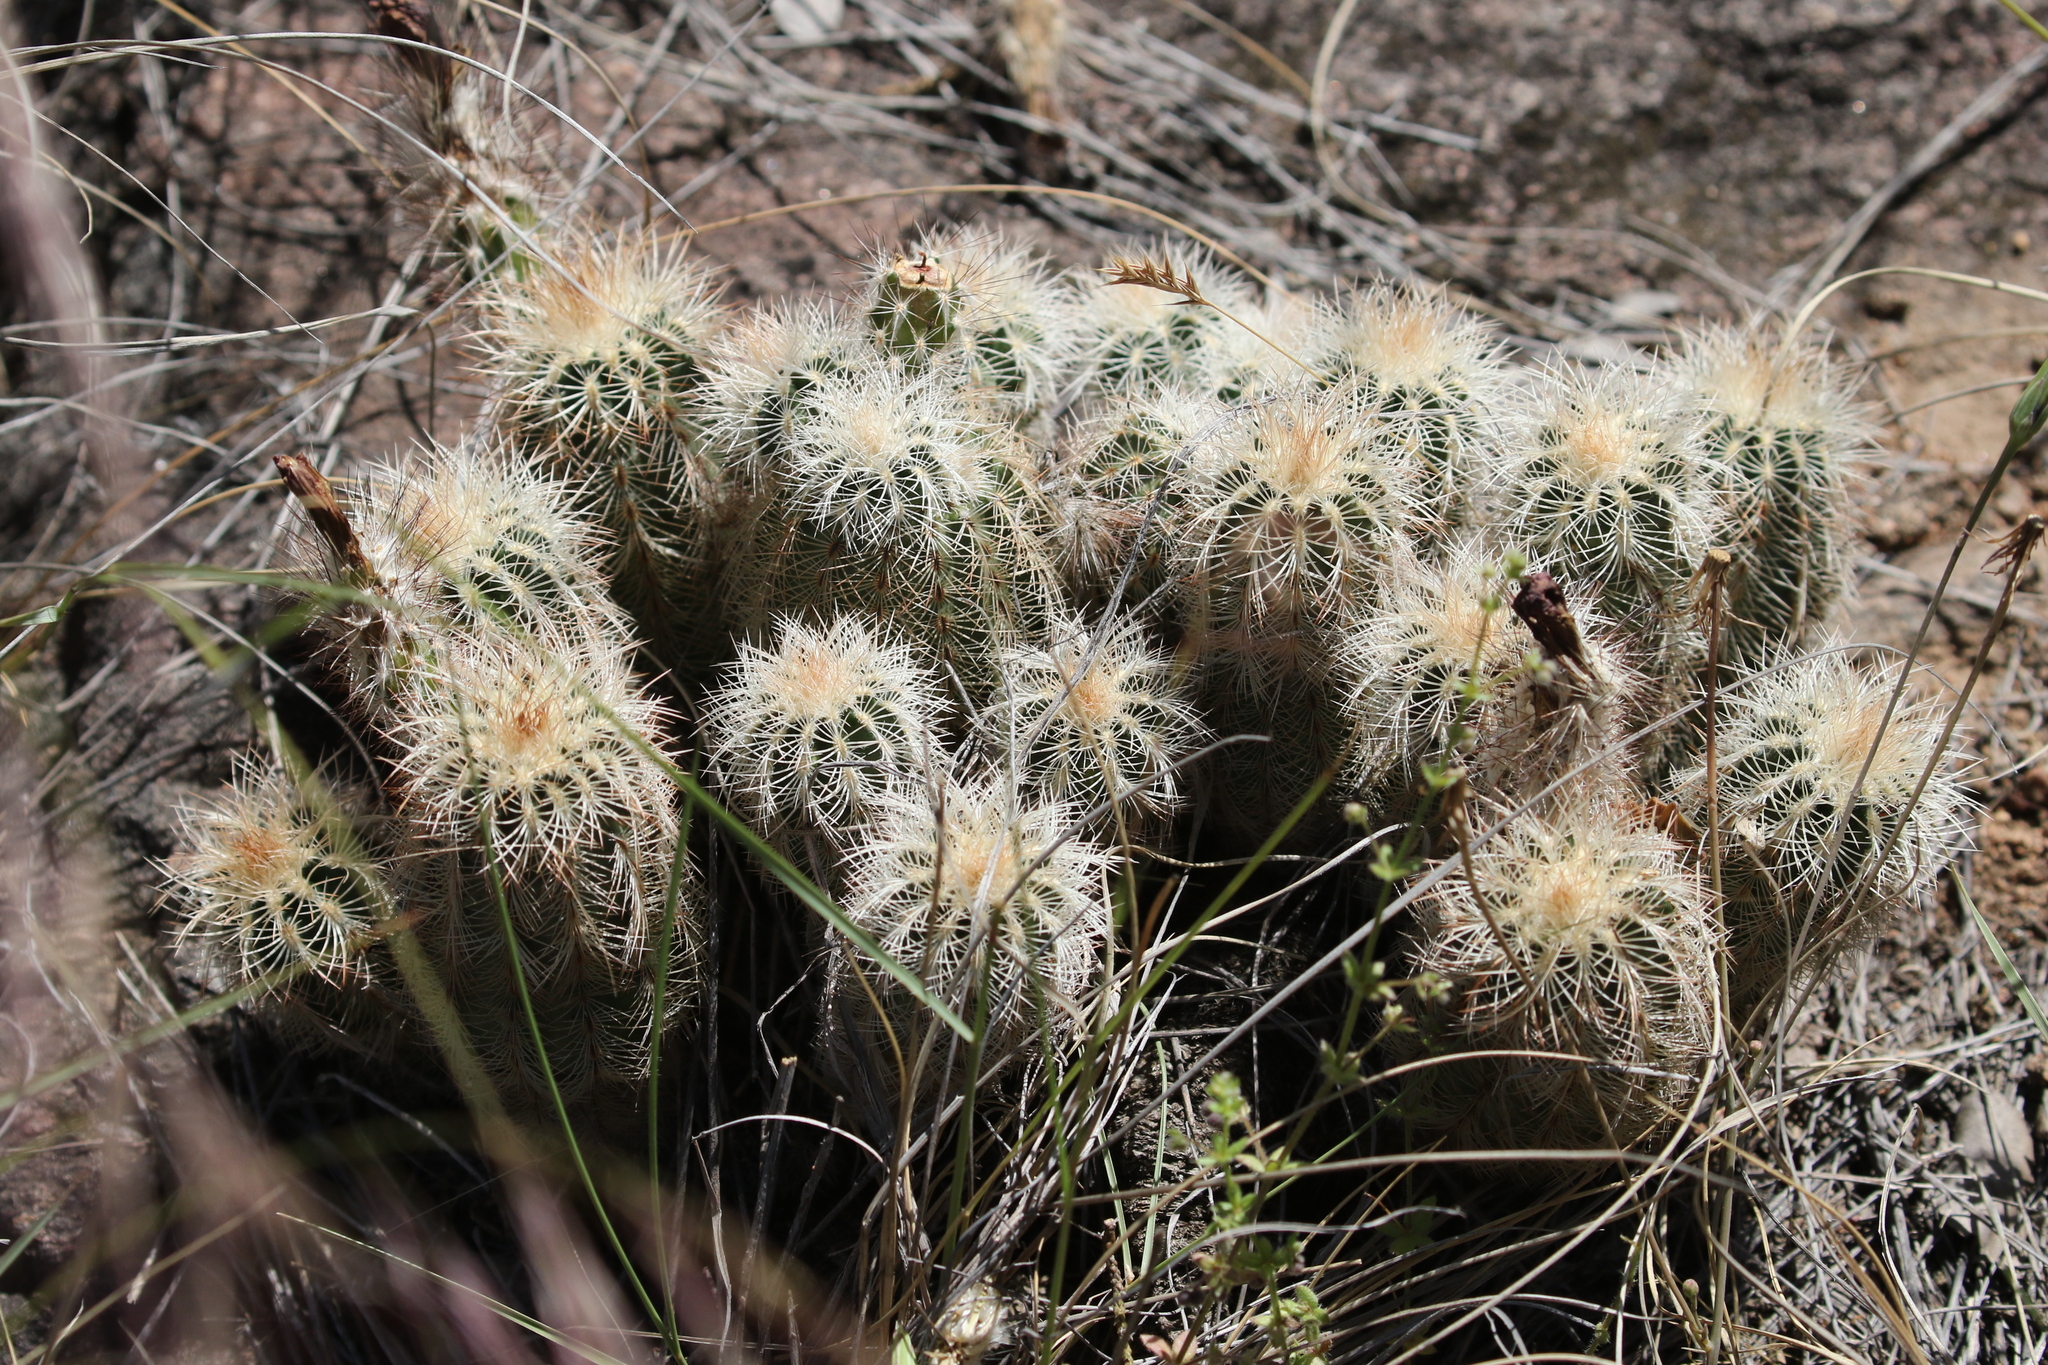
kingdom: Plantae
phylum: Tracheophyta
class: Magnoliopsida
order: Caryophyllales
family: Cactaceae
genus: Echinocereus
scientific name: Echinocereus reichenbachii
